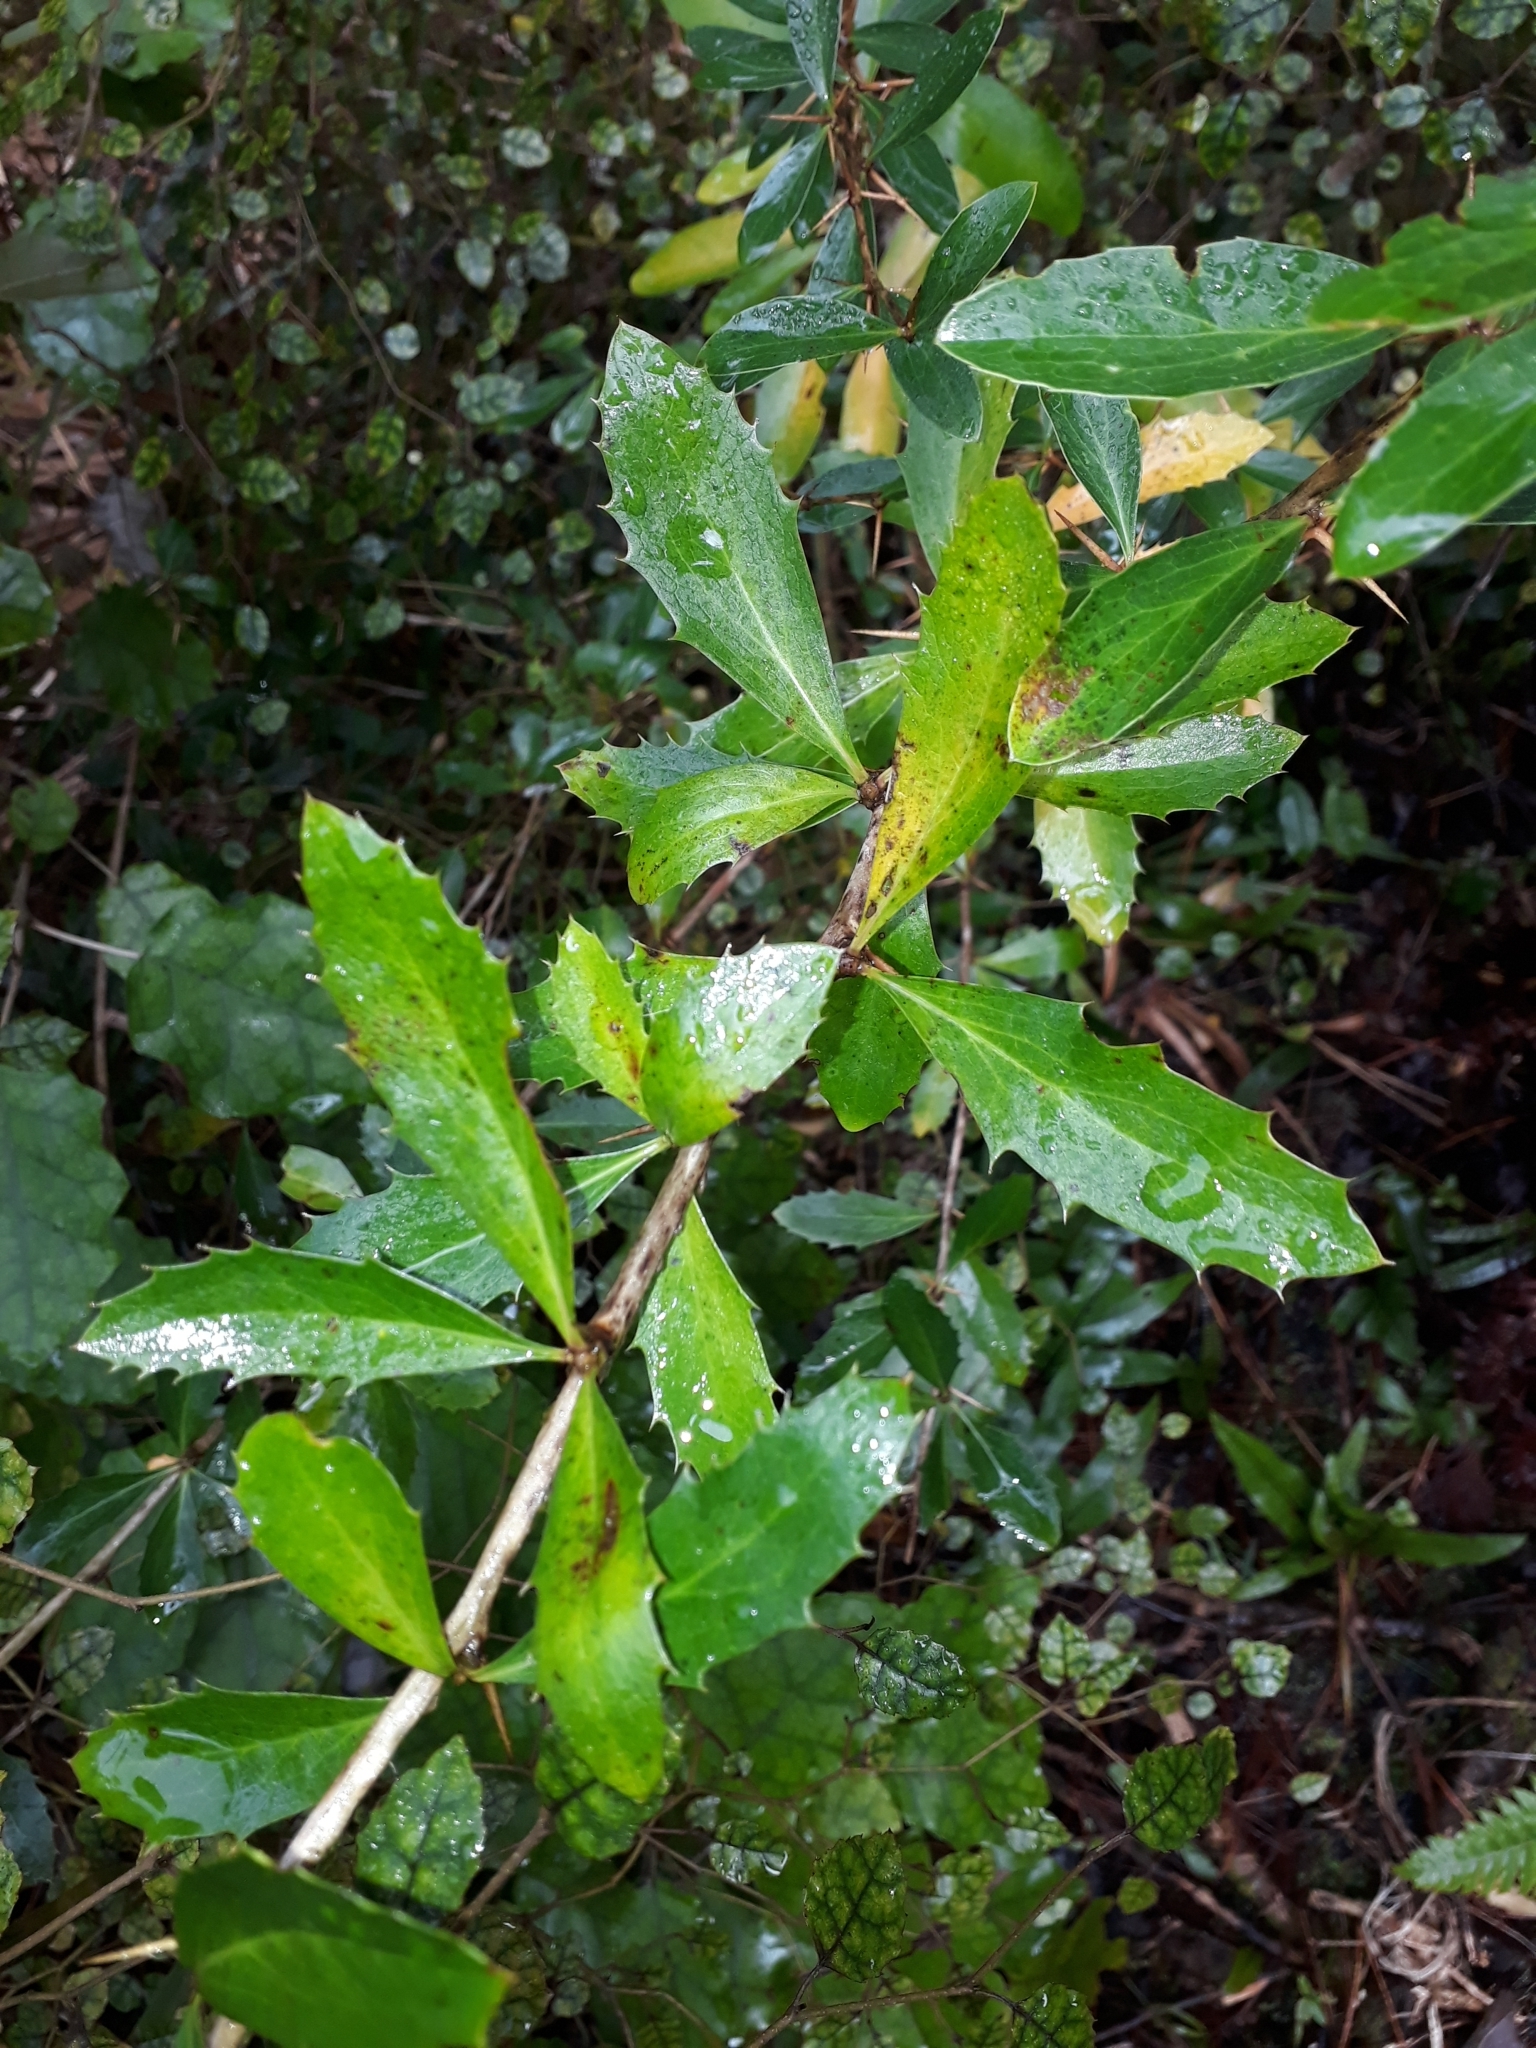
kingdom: Plantae
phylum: Tracheophyta
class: Magnoliopsida
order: Ranunculales
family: Berberidaceae
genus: Berberis
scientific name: Berberis glaucocarpa
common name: Great barberry
